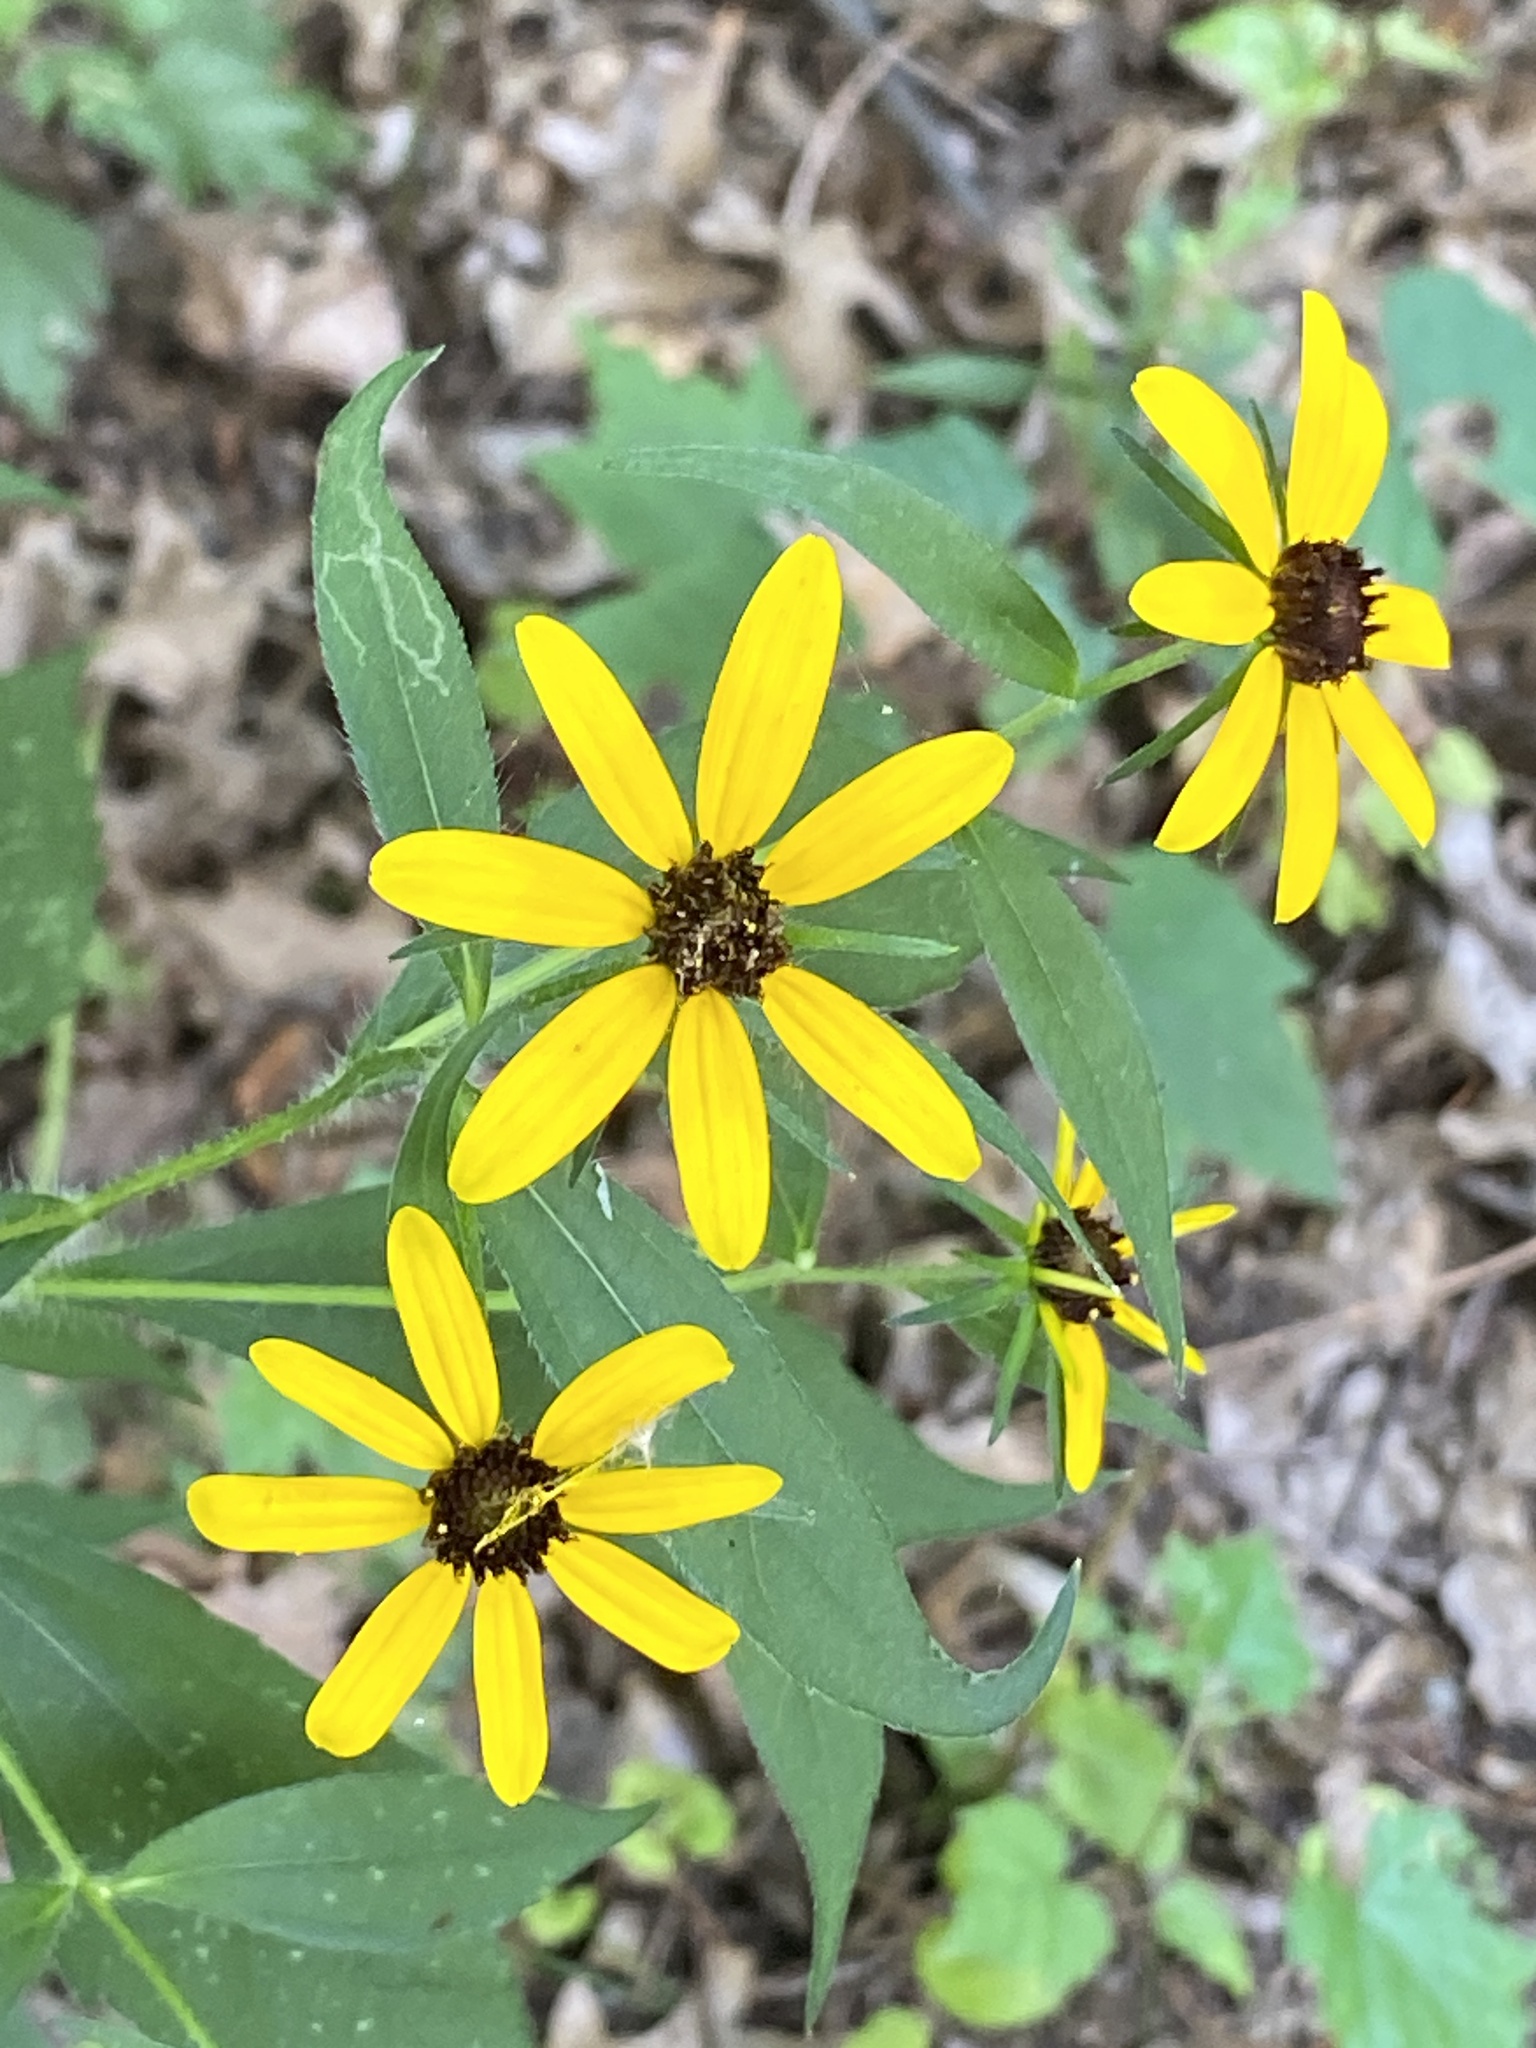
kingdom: Plantae
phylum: Tracheophyta
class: Magnoliopsida
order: Asterales
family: Asteraceae
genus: Rudbeckia
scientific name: Rudbeckia triloba
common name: Thin-leaved coneflower
